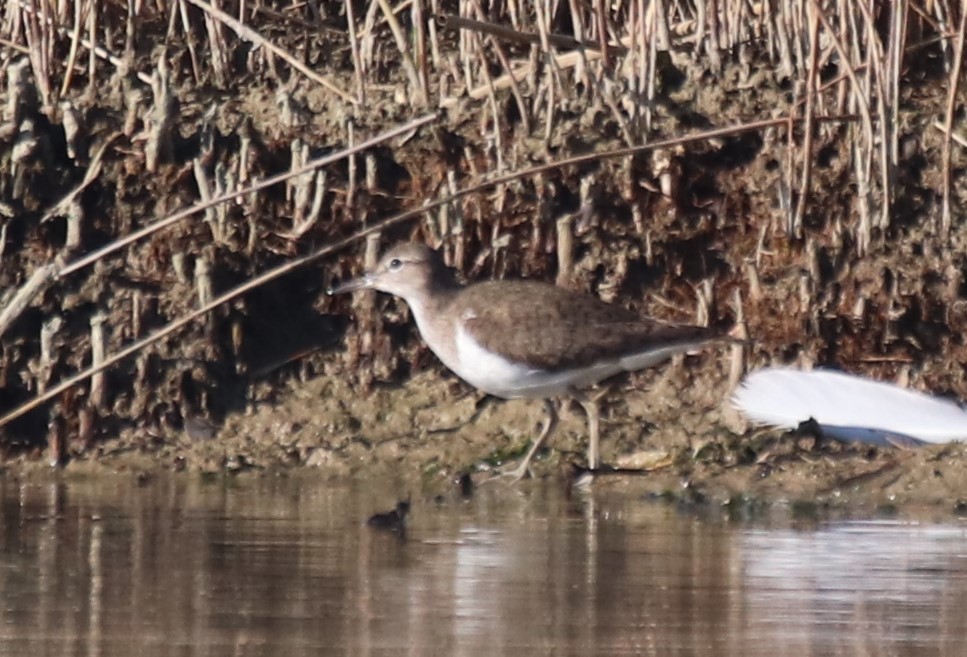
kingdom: Animalia
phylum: Chordata
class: Aves
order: Charadriiformes
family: Scolopacidae
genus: Actitis
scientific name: Actitis hypoleucos
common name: Common sandpiper
